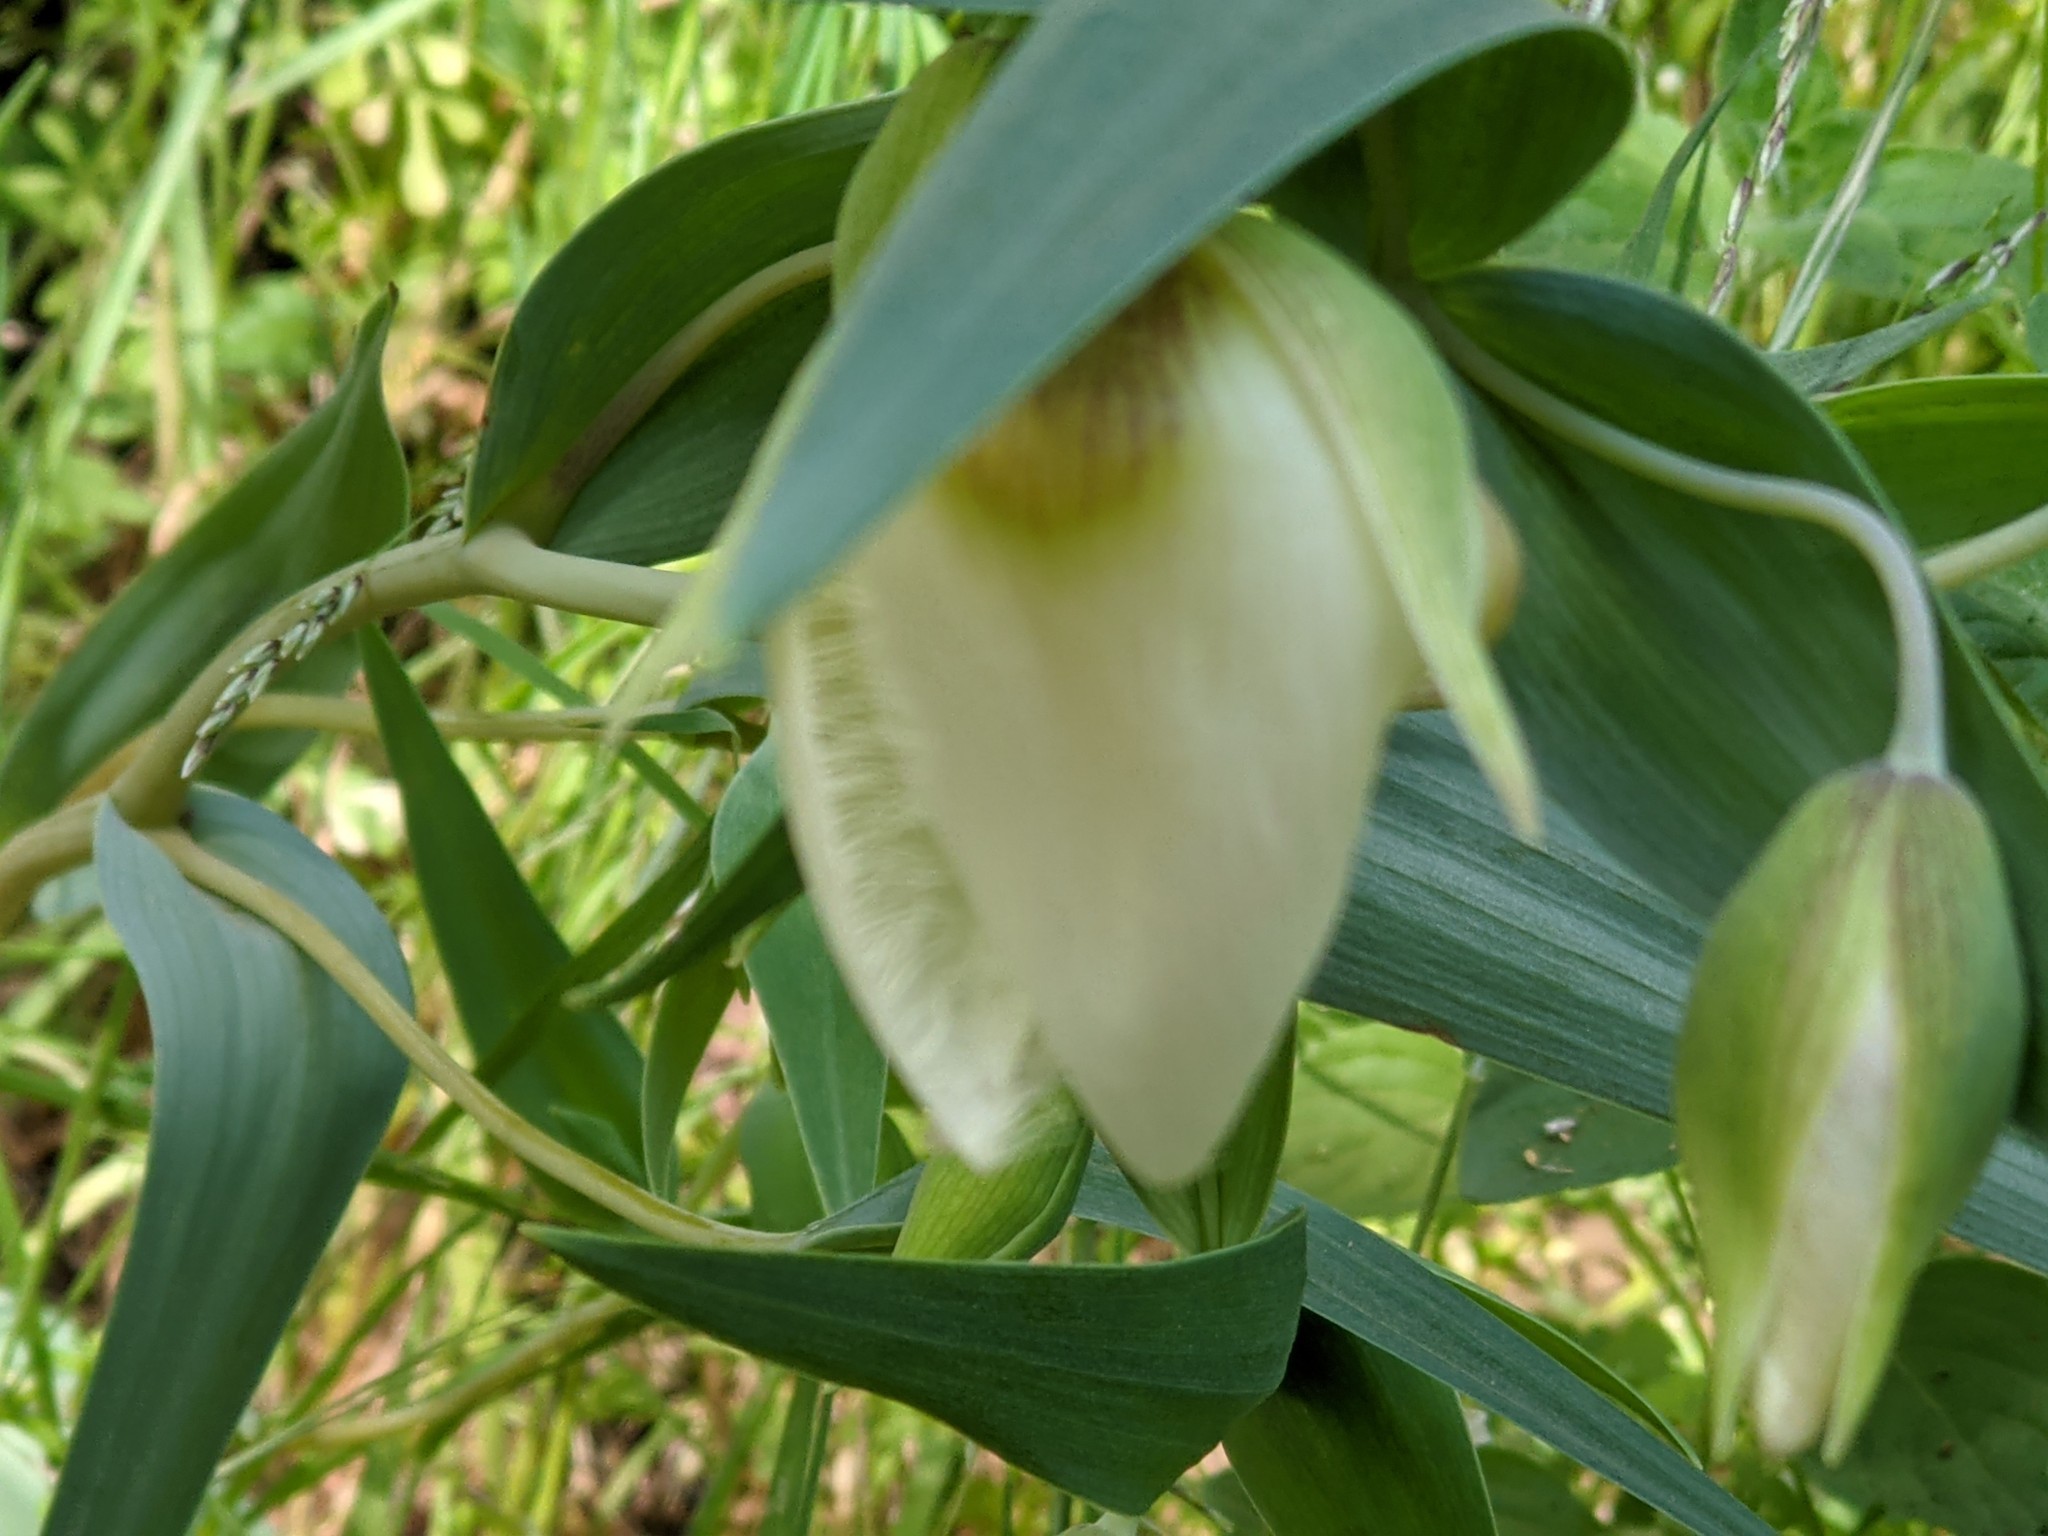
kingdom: Plantae
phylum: Tracheophyta
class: Liliopsida
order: Liliales
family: Liliaceae
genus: Calochortus
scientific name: Calochortus albus
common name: Fairy-lantern
